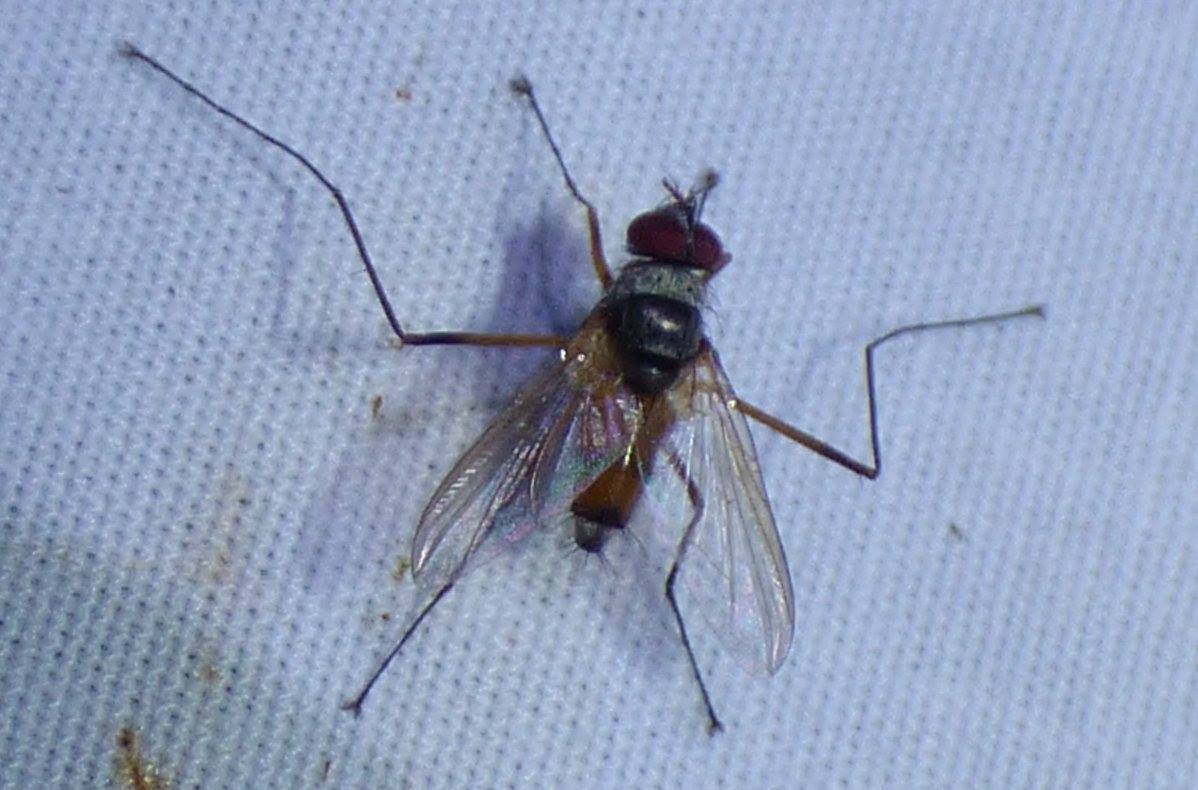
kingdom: Animalia
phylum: Arthropoda
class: Insecta
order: Diptera
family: Tachinidae
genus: Cholomyia
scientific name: Cholomyia inaequipes
